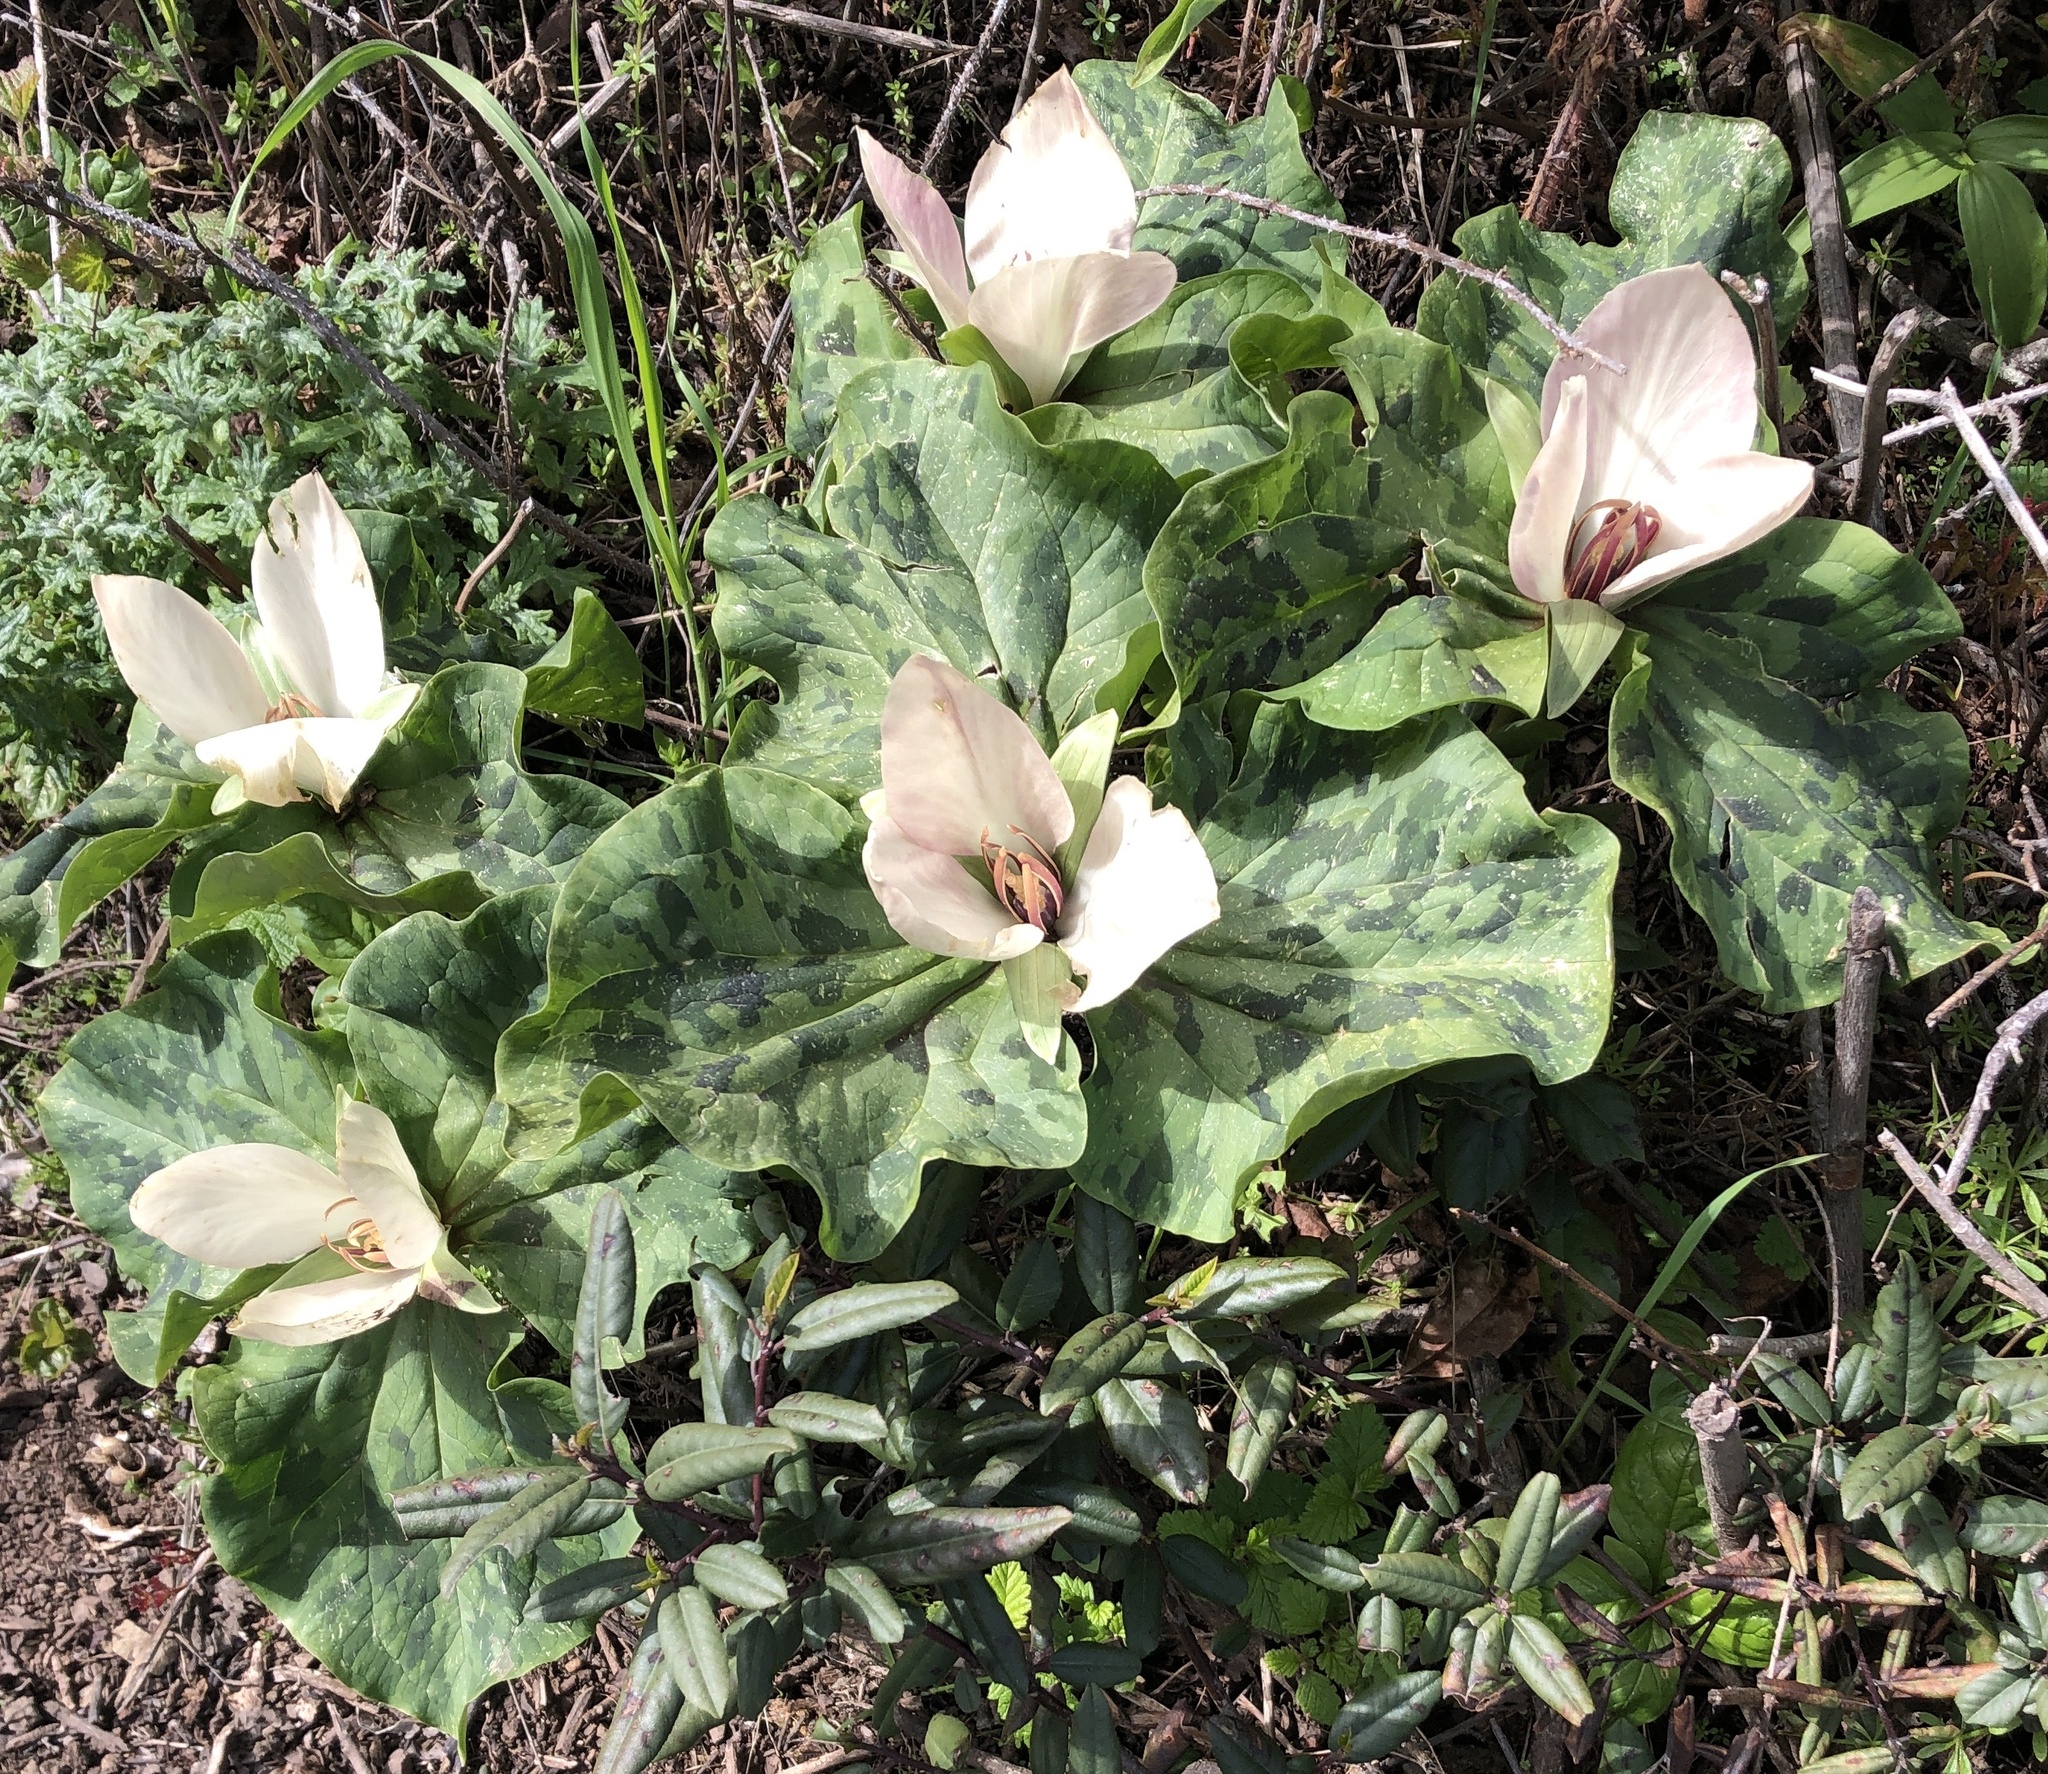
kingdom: Plantae
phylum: Tracheophyta
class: Liliopsida
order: Liliales
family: Melanthiaceae
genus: Trillium
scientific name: Trillium chloropetalum
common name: Giant trillium
